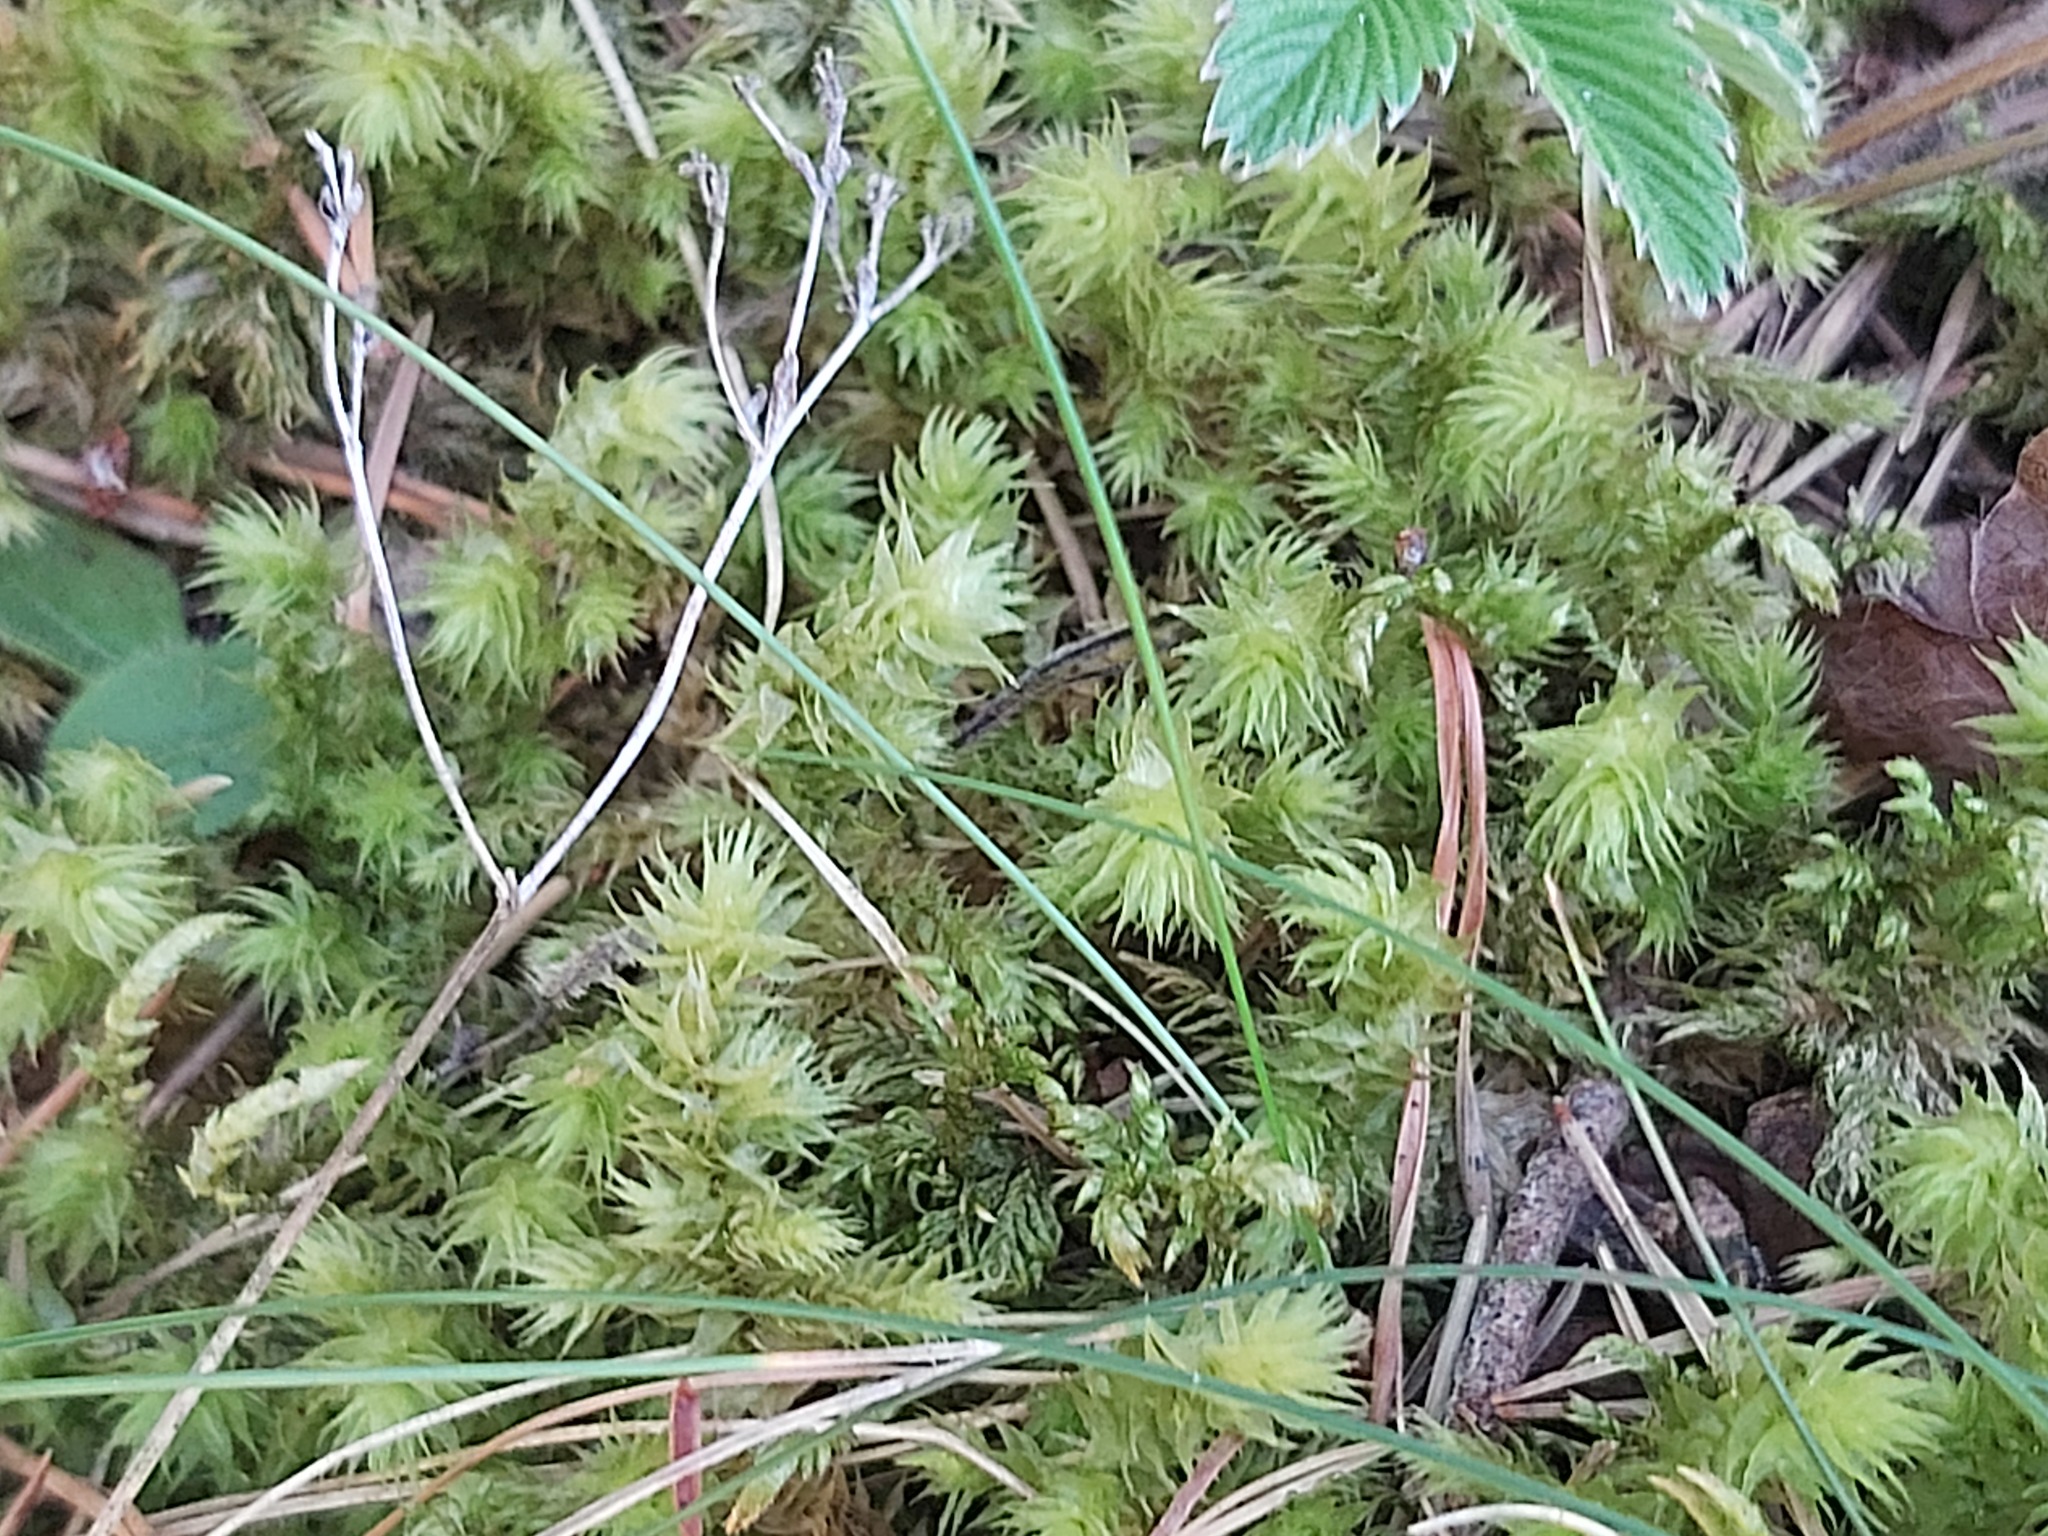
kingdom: Plantae
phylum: Bryophyta
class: Bryopsida
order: Hypnales
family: Hylocomiaceae
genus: Hylocomiadelphus
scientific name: Hylocomiadelphus triquetrus
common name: Rough goose neck moss
